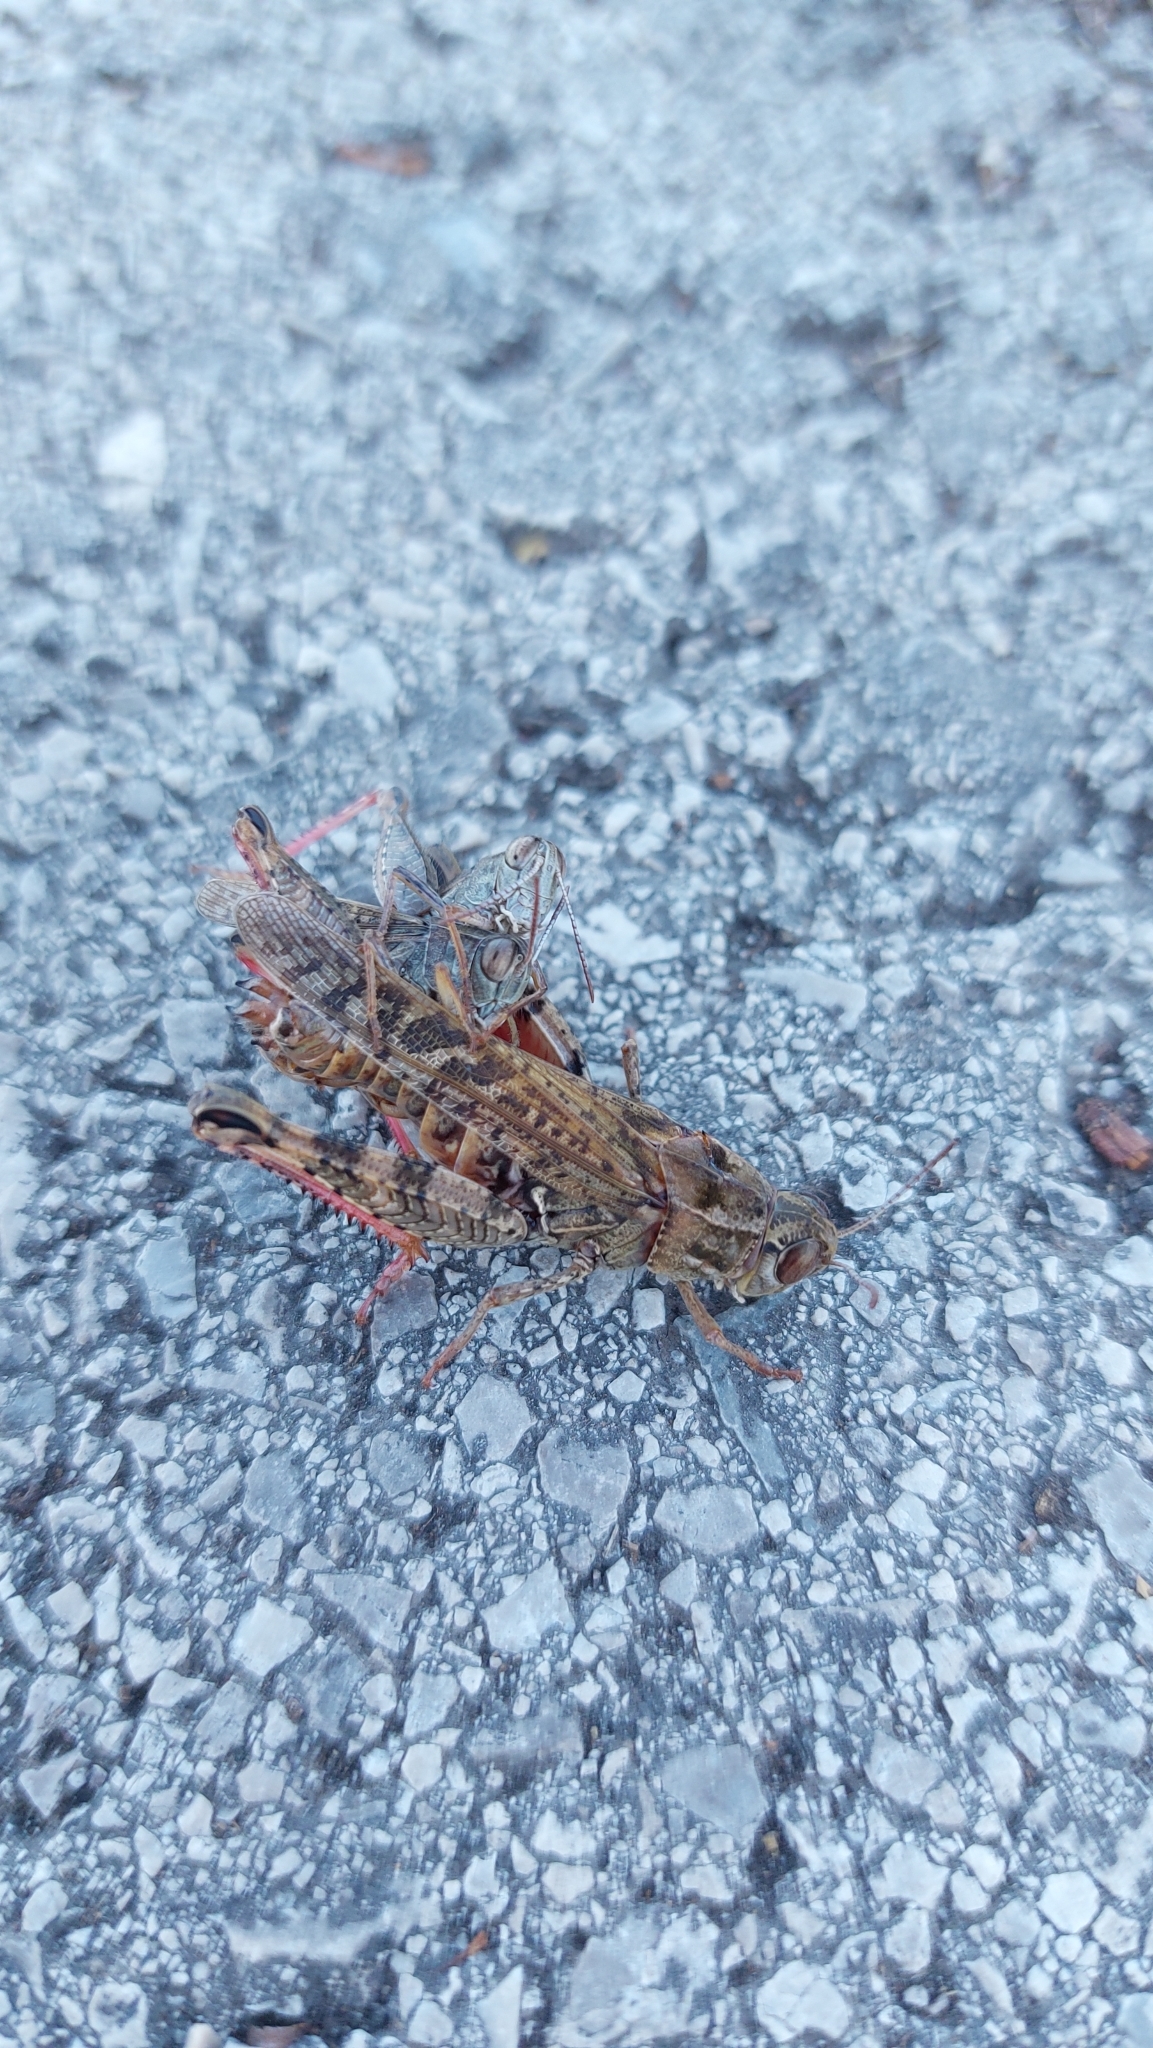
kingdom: Animalia
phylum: Arthropoda
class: Insecta
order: Orthoptera
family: Acrididae
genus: Calliptamus
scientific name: Calliptamus italicus
